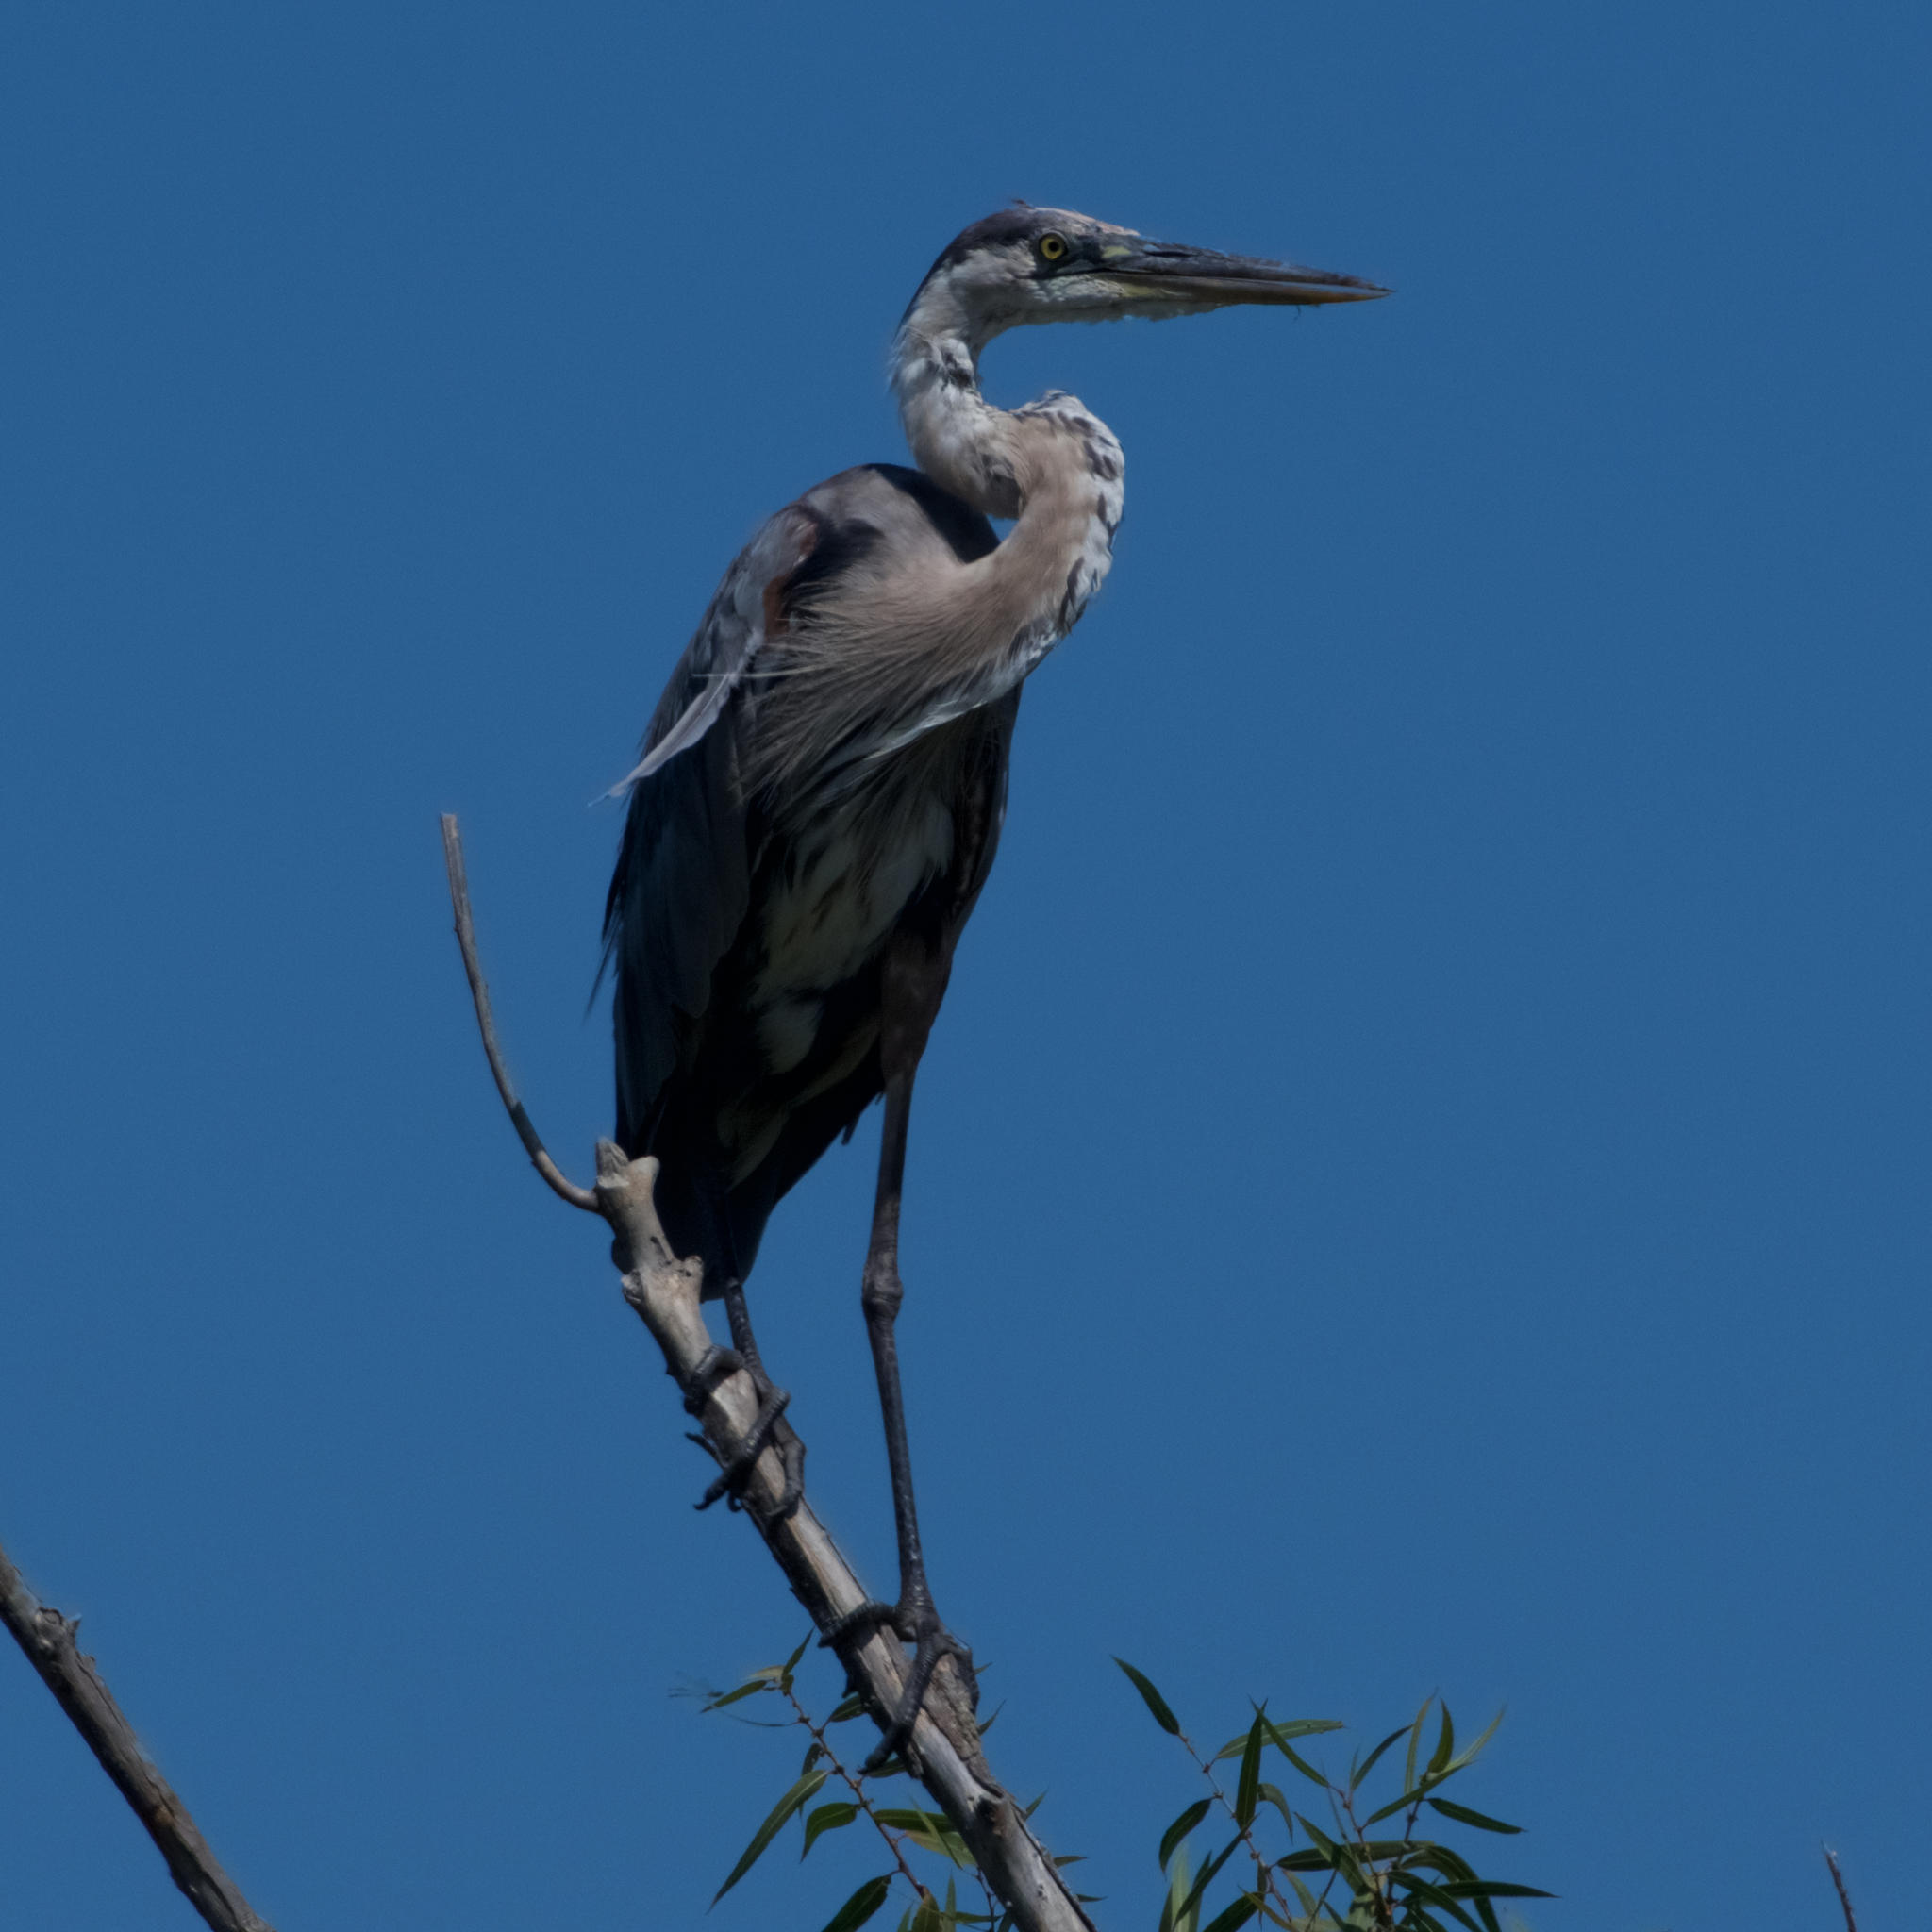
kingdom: Animalia
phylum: Chordata
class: Aves
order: Pelecaniformes
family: Ardeidae
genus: Ardea
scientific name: Ardea herodias
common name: Great blue heron
